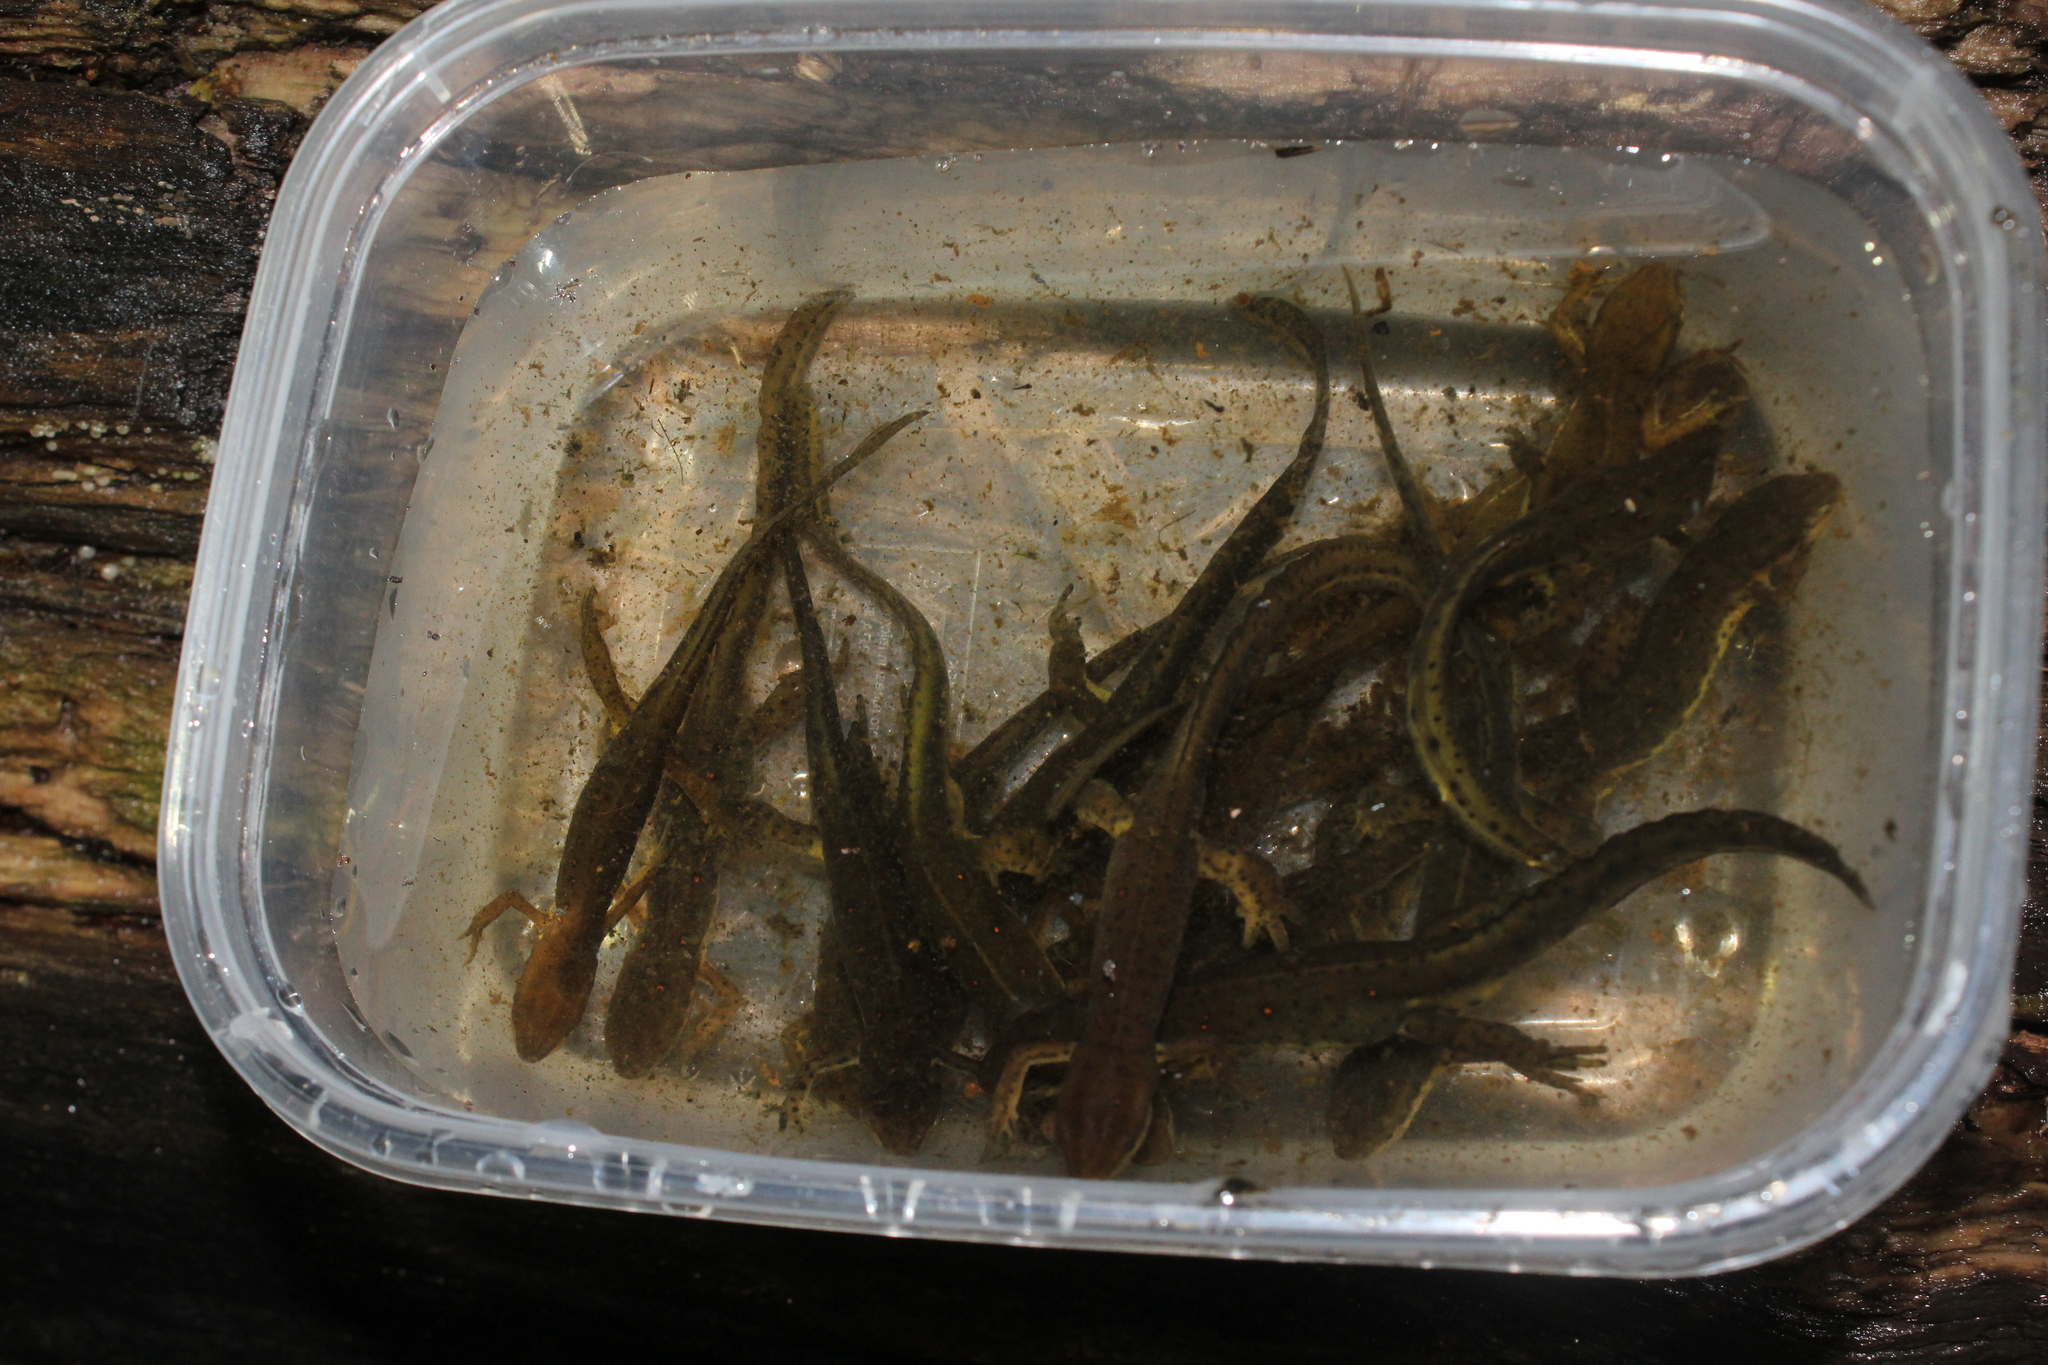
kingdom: Animalia
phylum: Chordata
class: Amphibia
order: Caudata
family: Salamandridae
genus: Notophthalmus
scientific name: Notophthalmus viridescens
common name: Eastern newt
